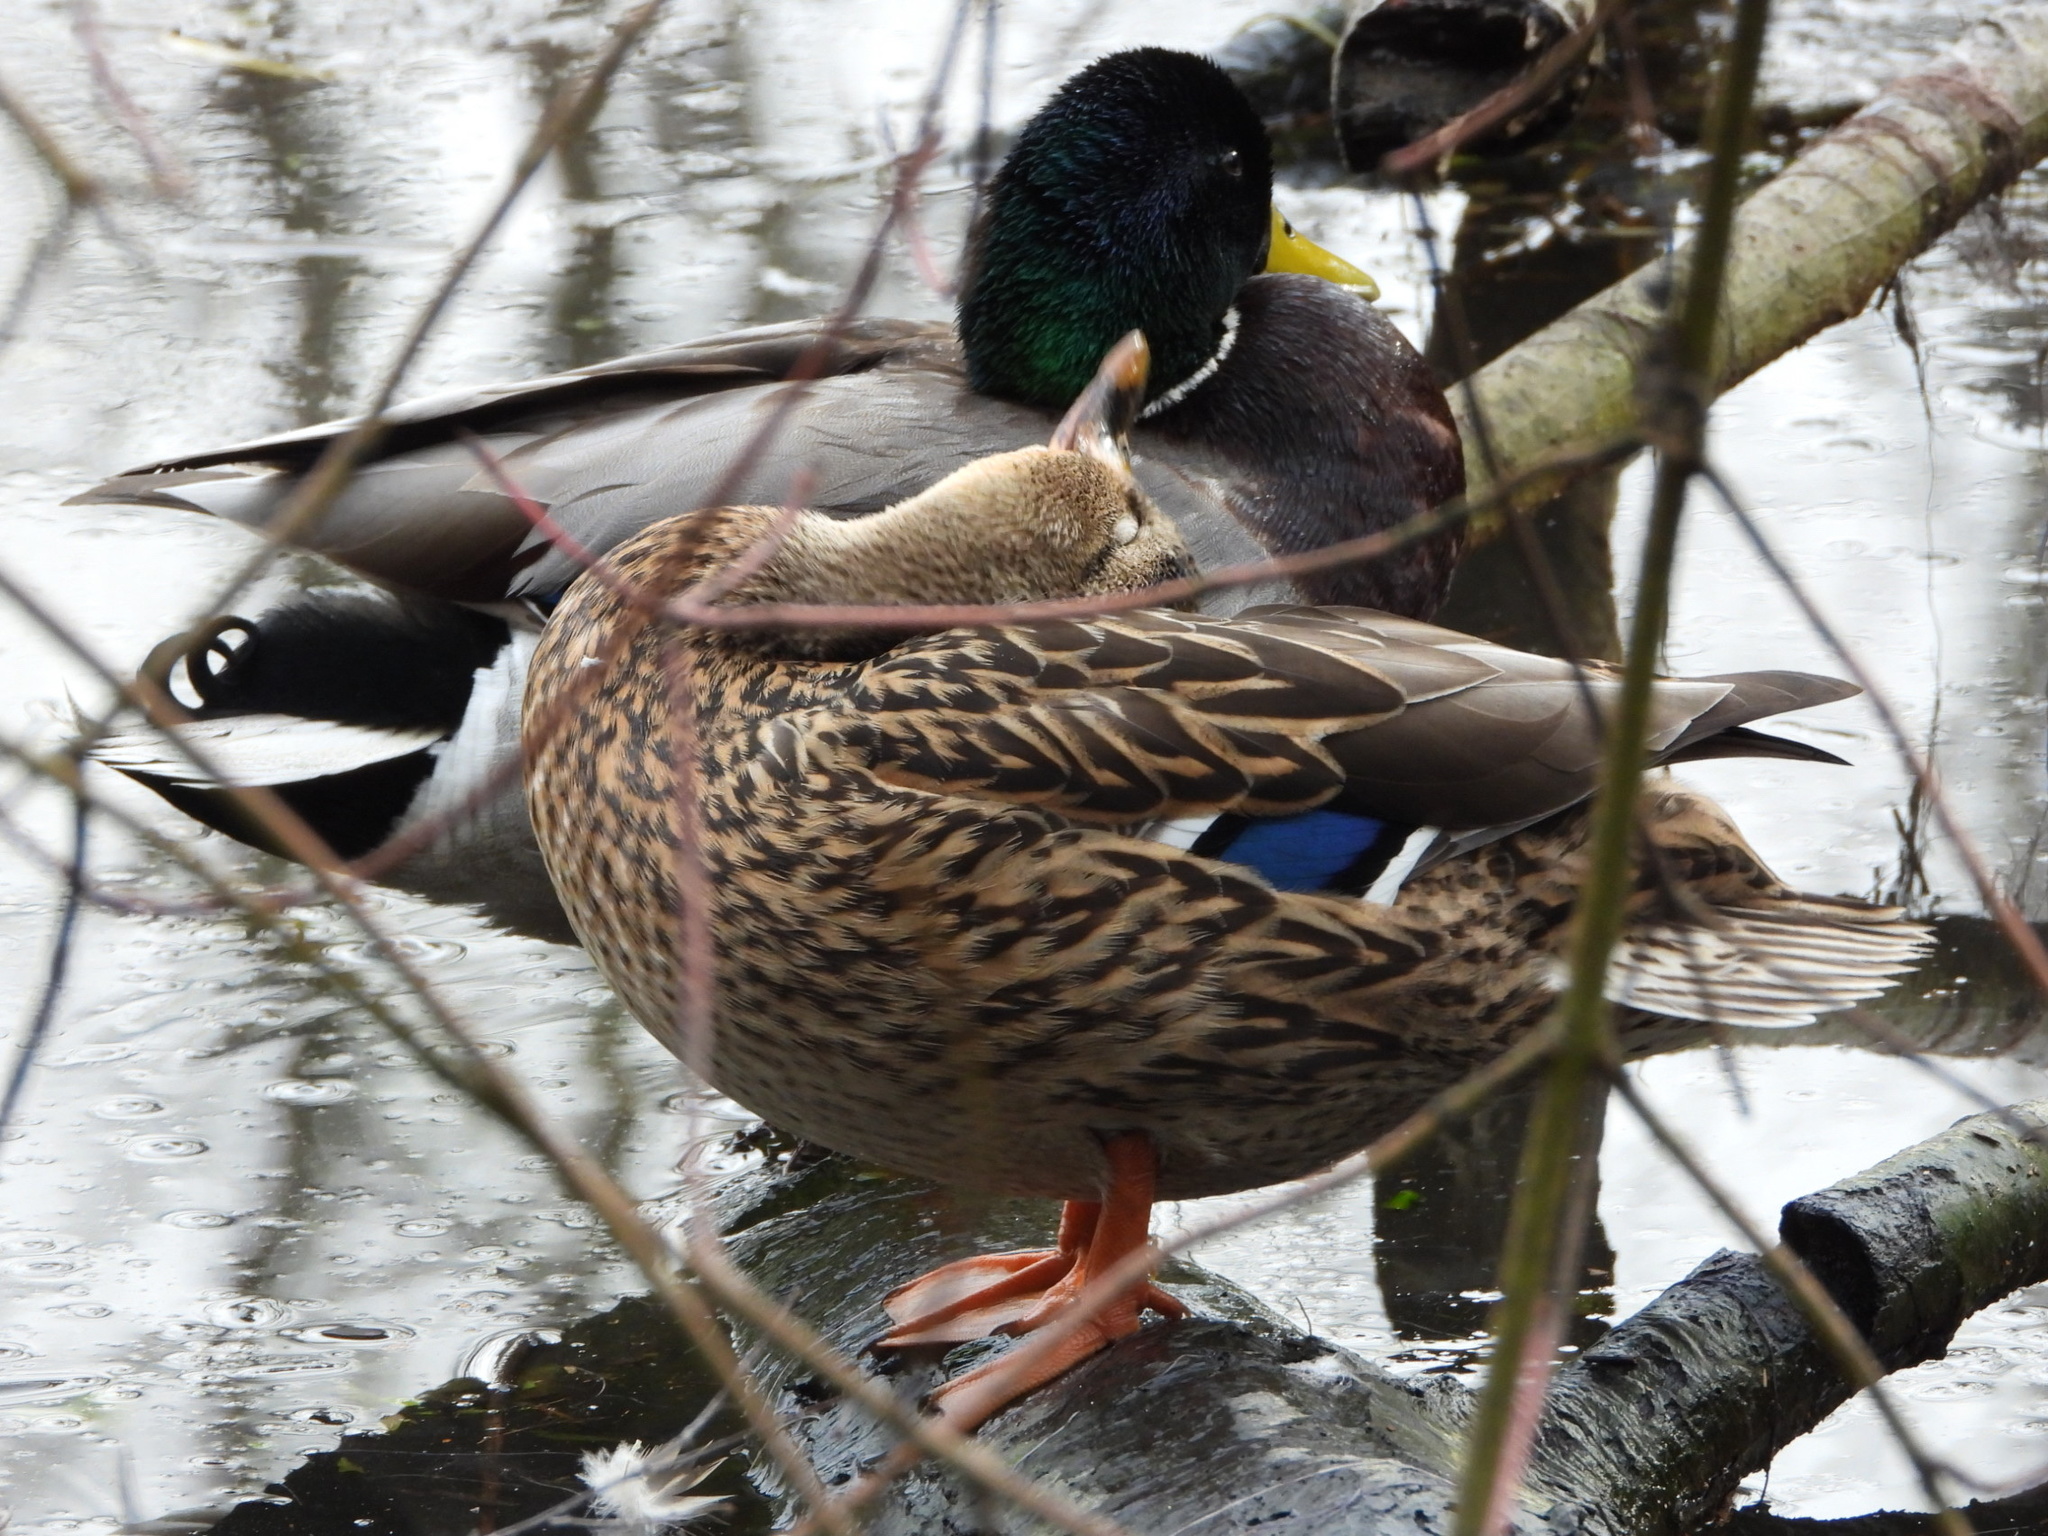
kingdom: Animalia
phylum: Chordata
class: Aves
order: Anseriformes
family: Anatidae
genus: Anas
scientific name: Anas platyrhynchos
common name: Mallard
